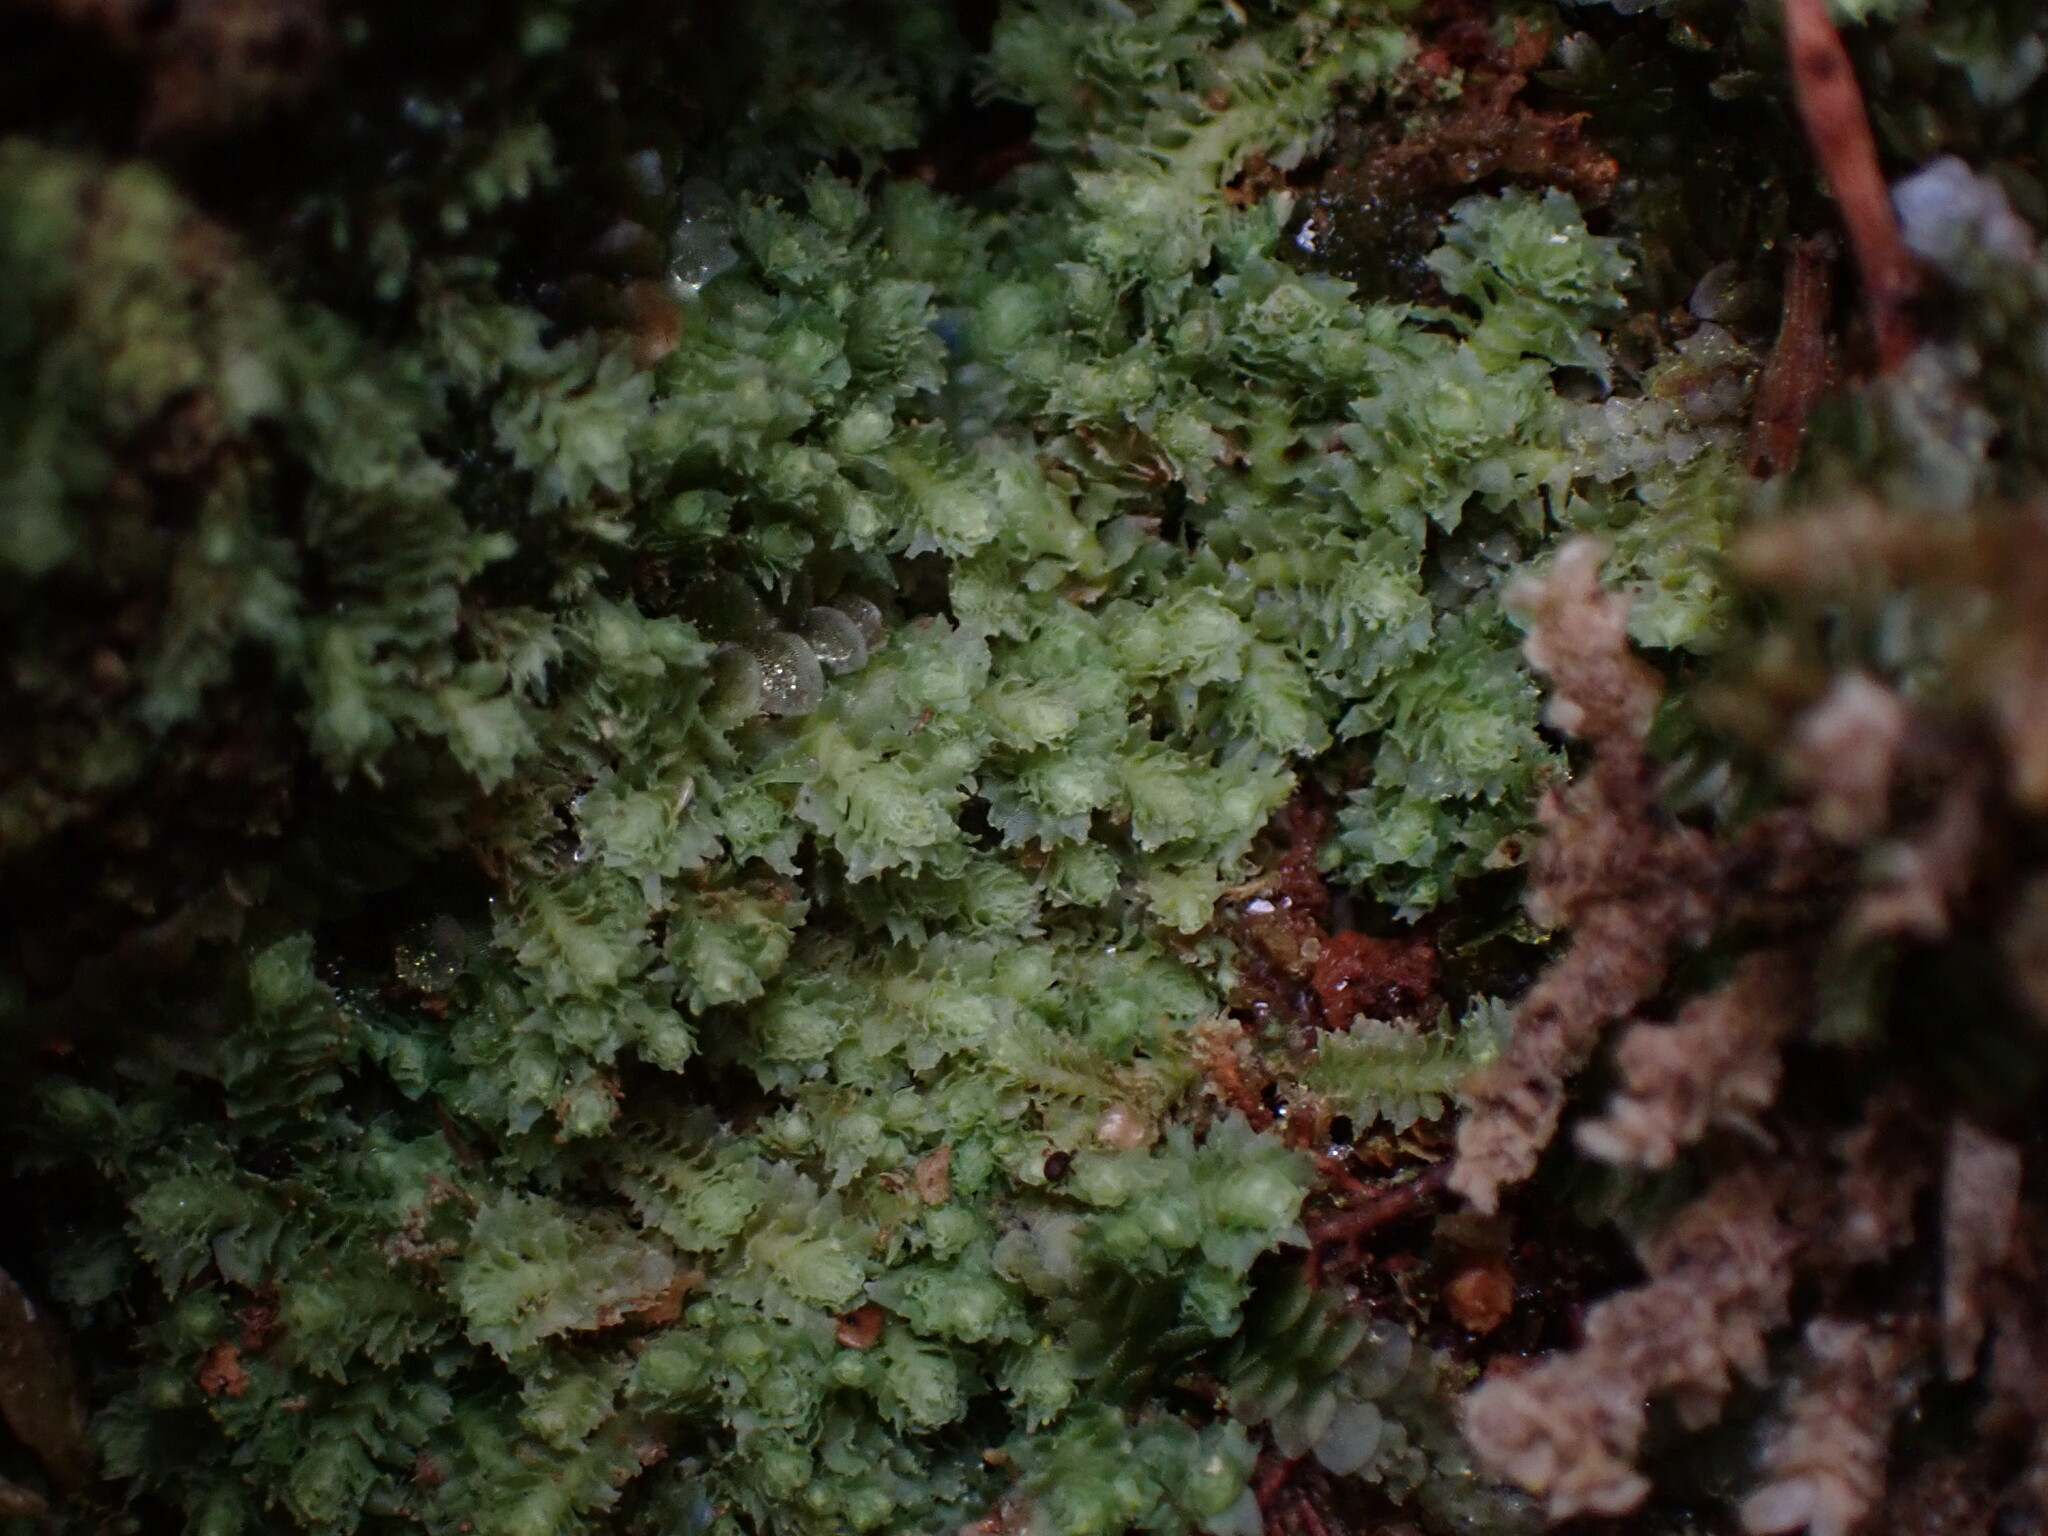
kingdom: Plantae
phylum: Marchantiophyta
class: Jungermanniopsida
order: Jungermanniales
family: Scapaniaceae
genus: Schistochilopsis
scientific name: Schistochilopsis incisa
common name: Jagged notchwort
